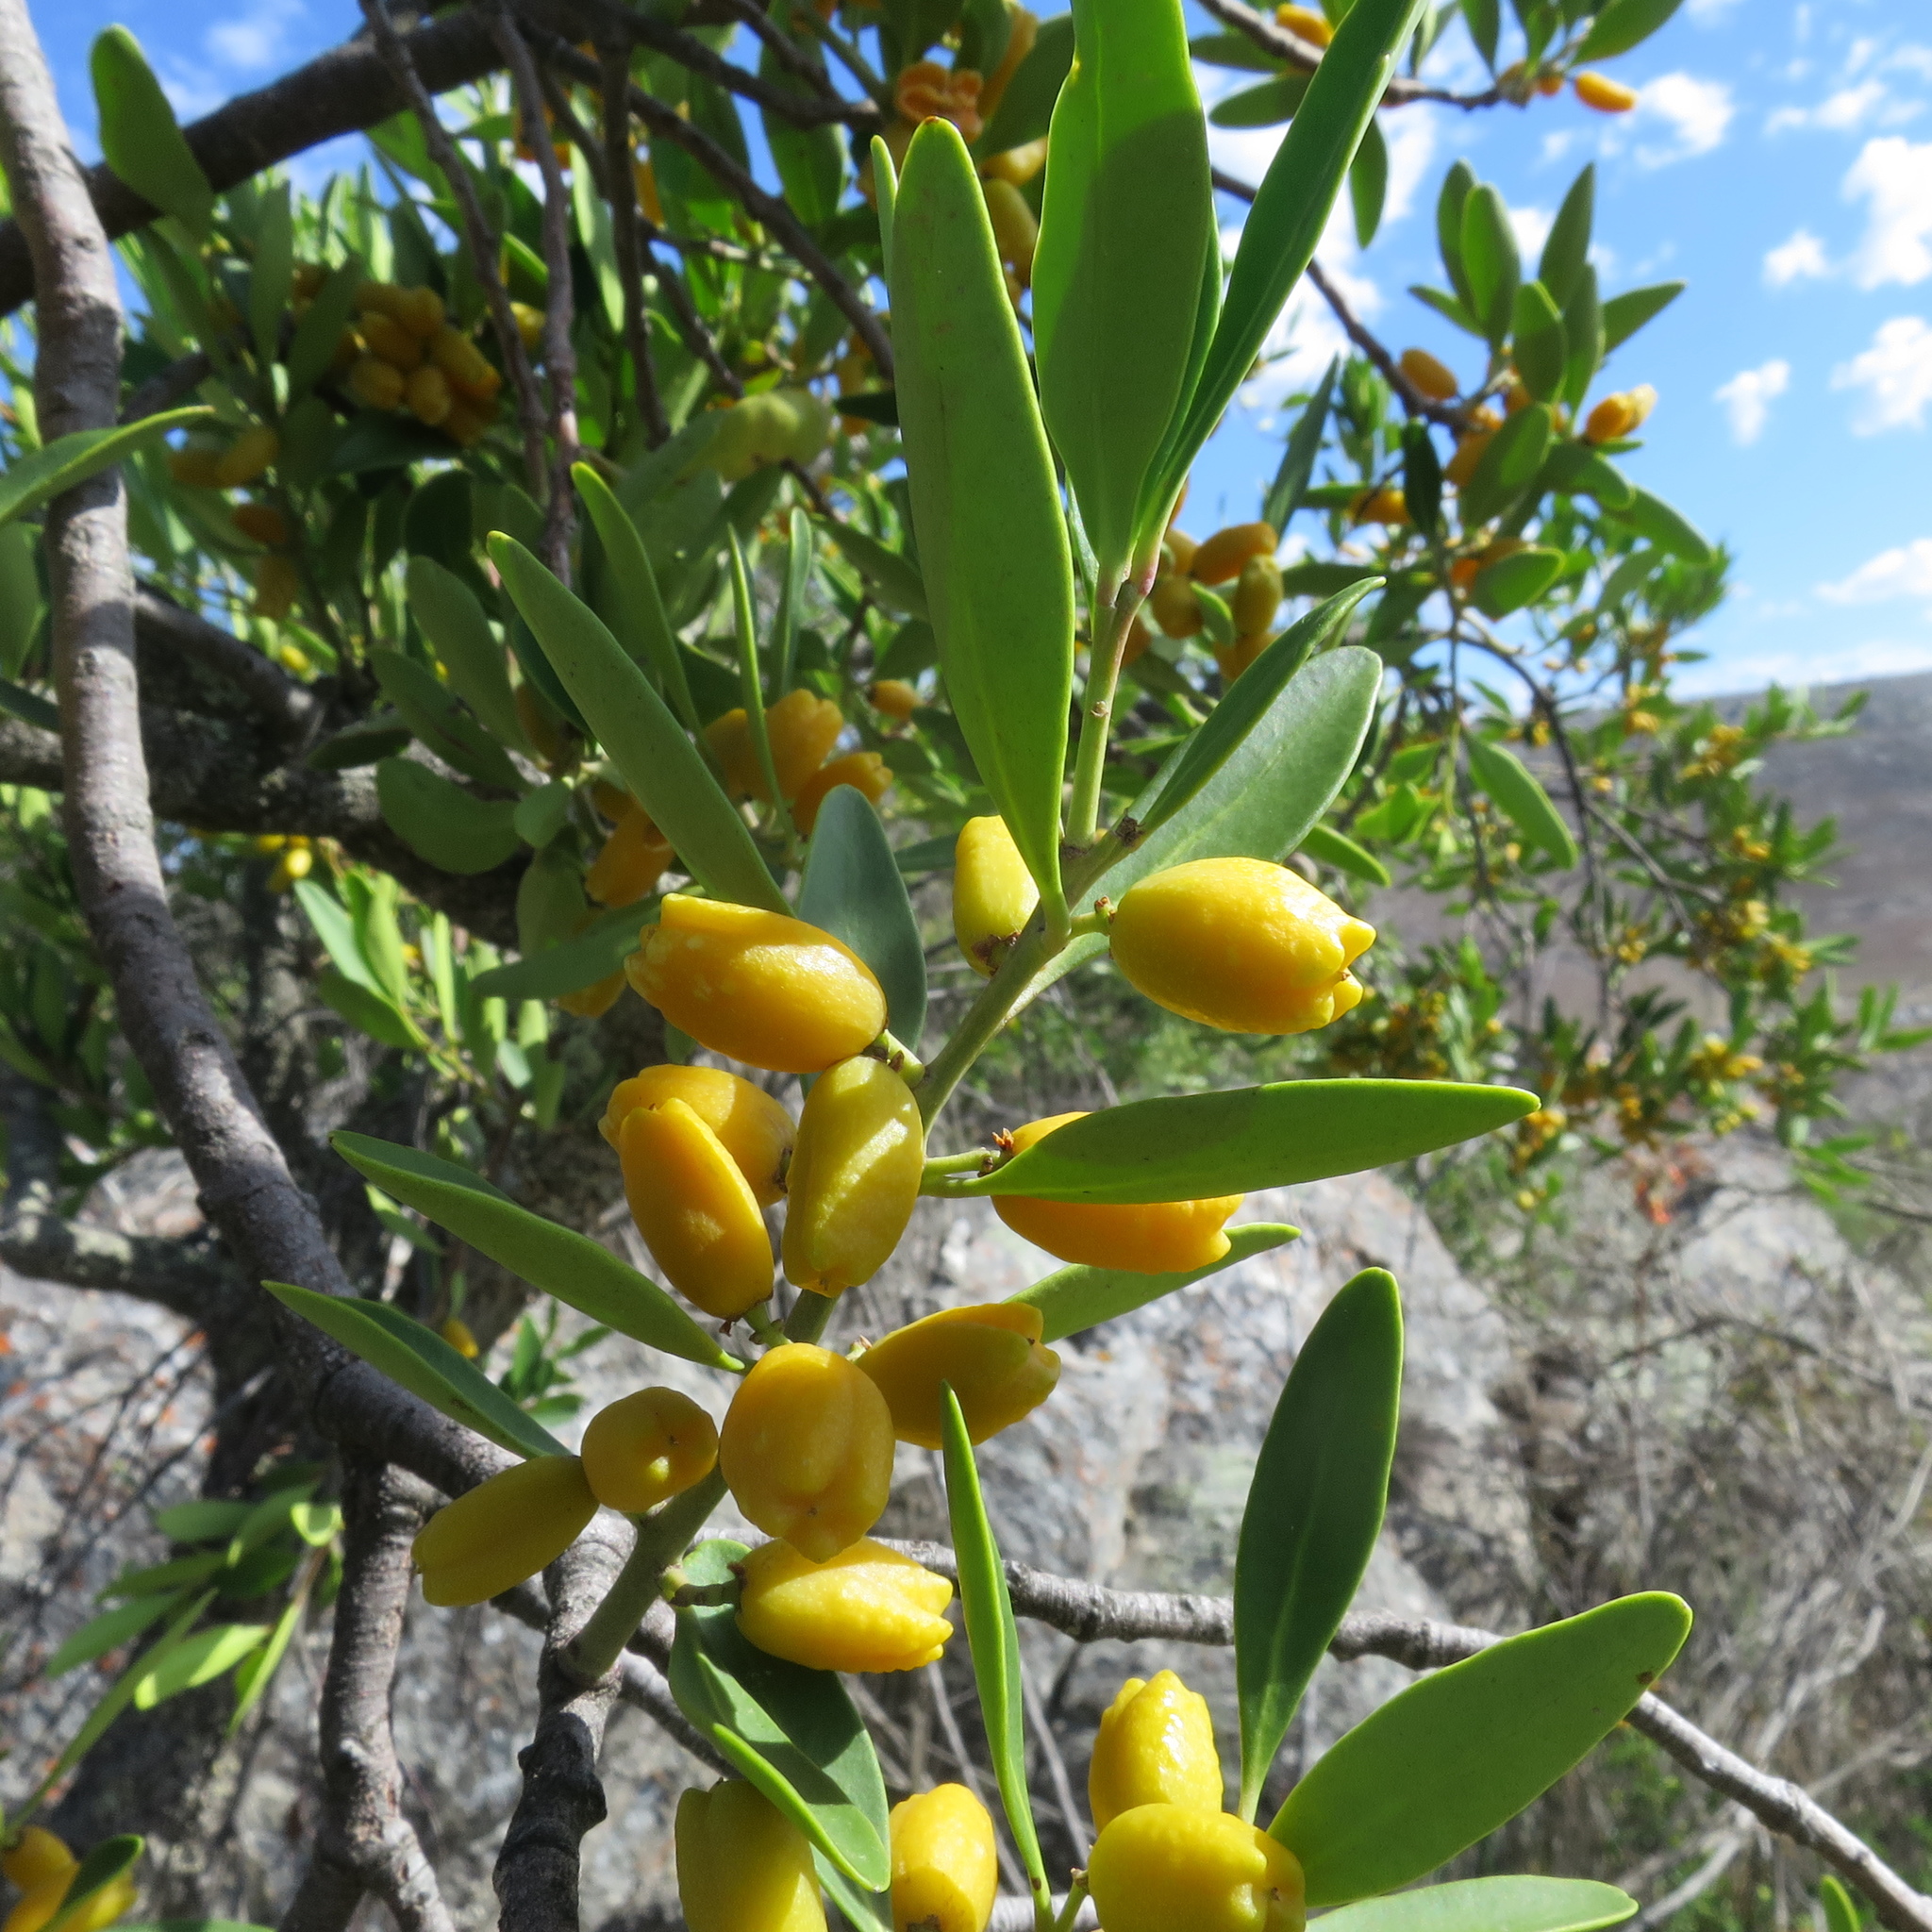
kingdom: Plantae
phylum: Tracheophyta
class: Magnoliopsida
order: Celastrales
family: Celastraceae
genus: Gymnosporia
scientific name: Gymnosporia laurina
